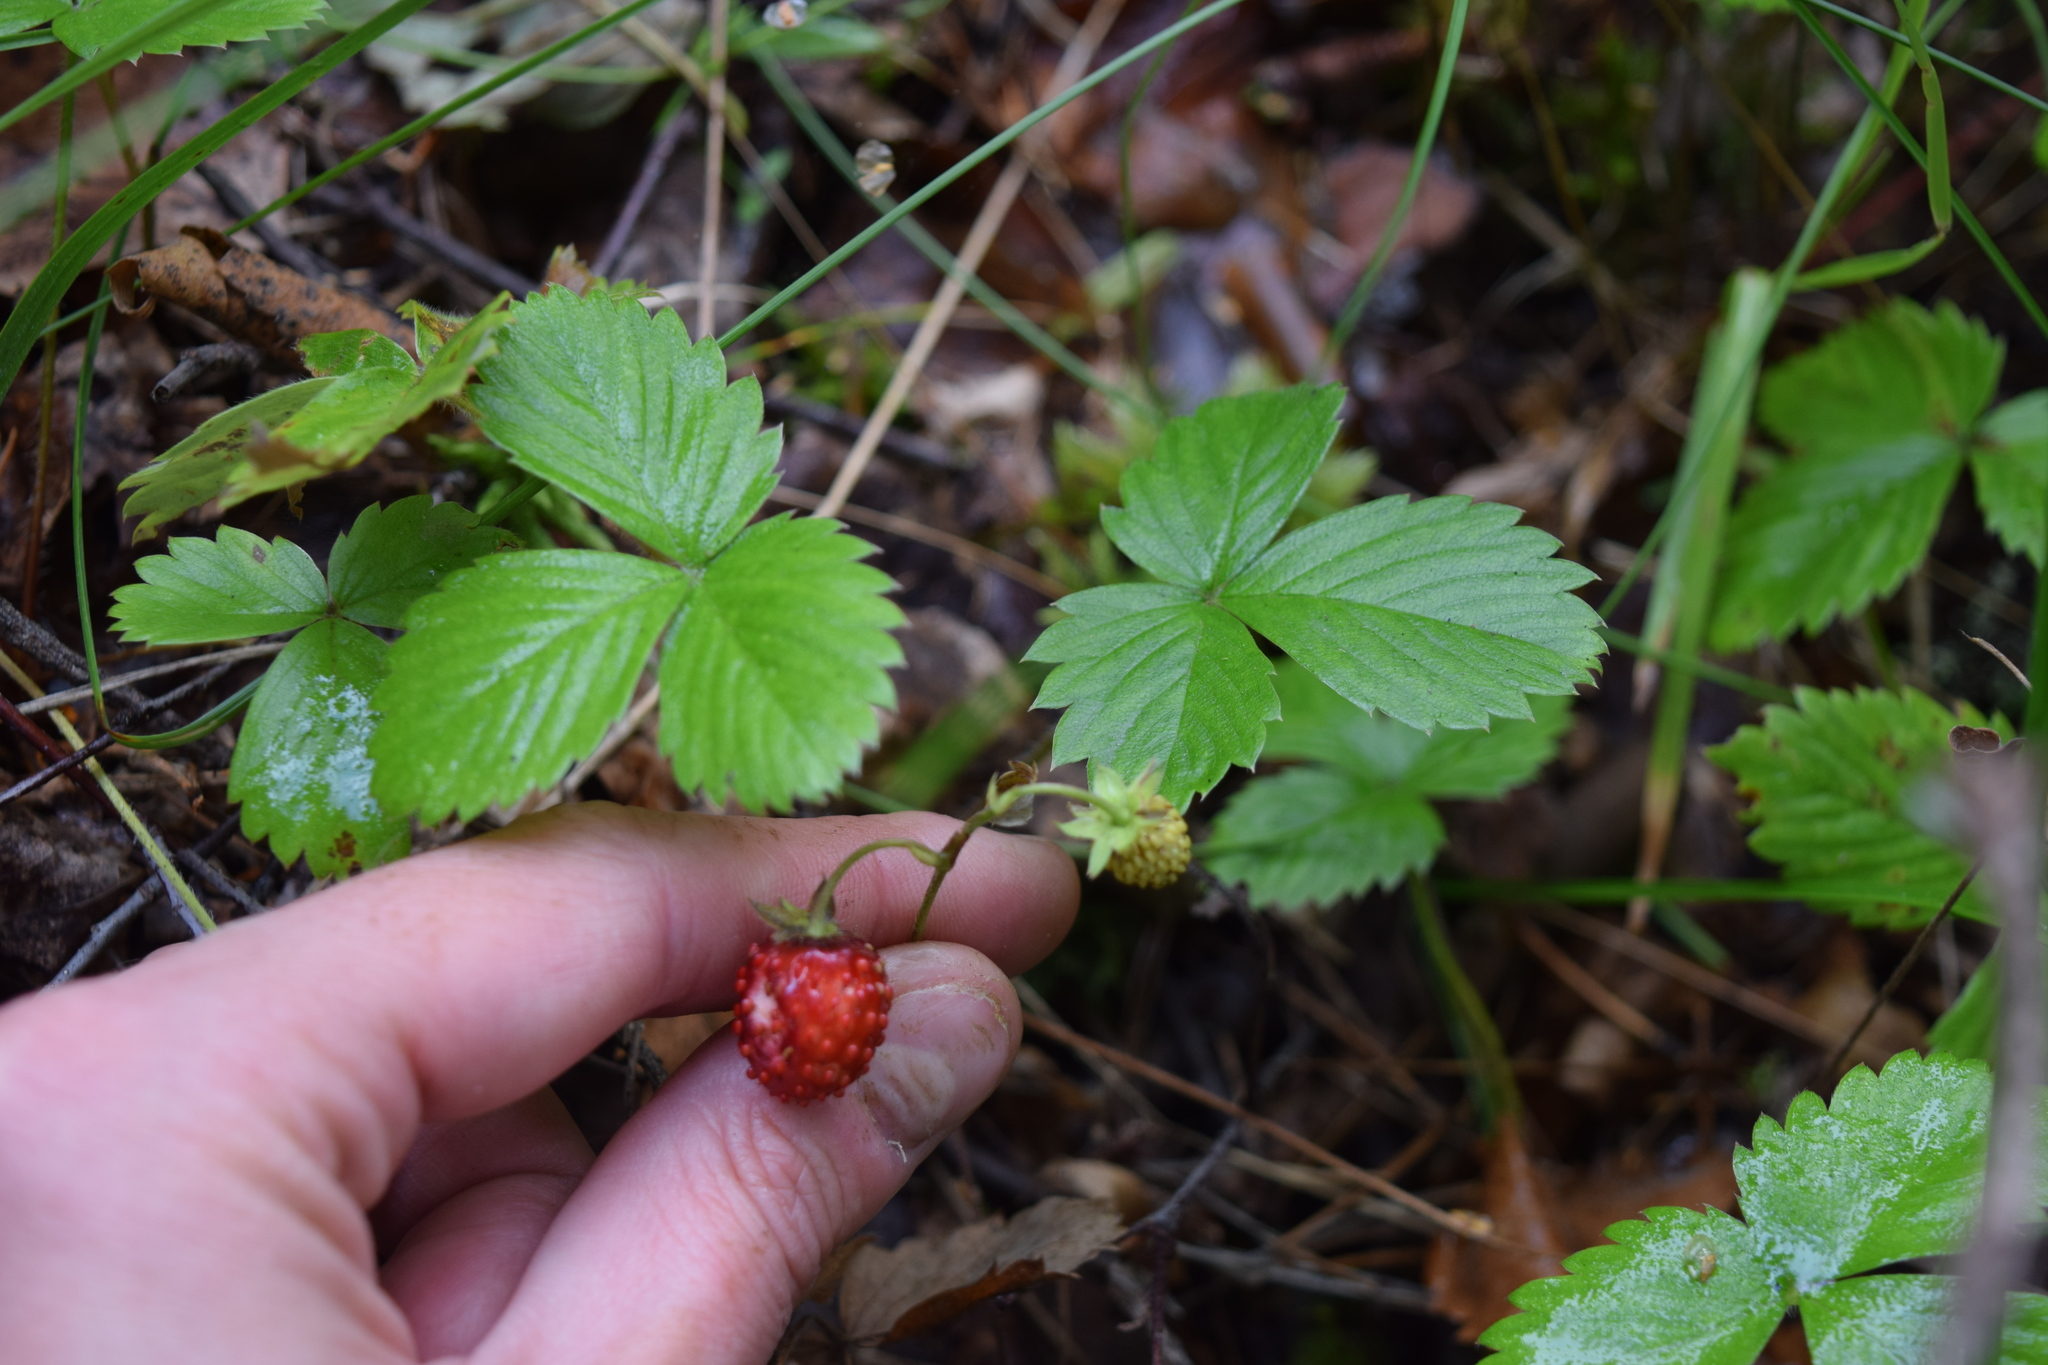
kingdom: Plantae
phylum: Tracheophyta
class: Magnoliopsida
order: Rosales
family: Rosaceae
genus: Fragaria
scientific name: Fragaria vesca
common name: Wild strawberry
